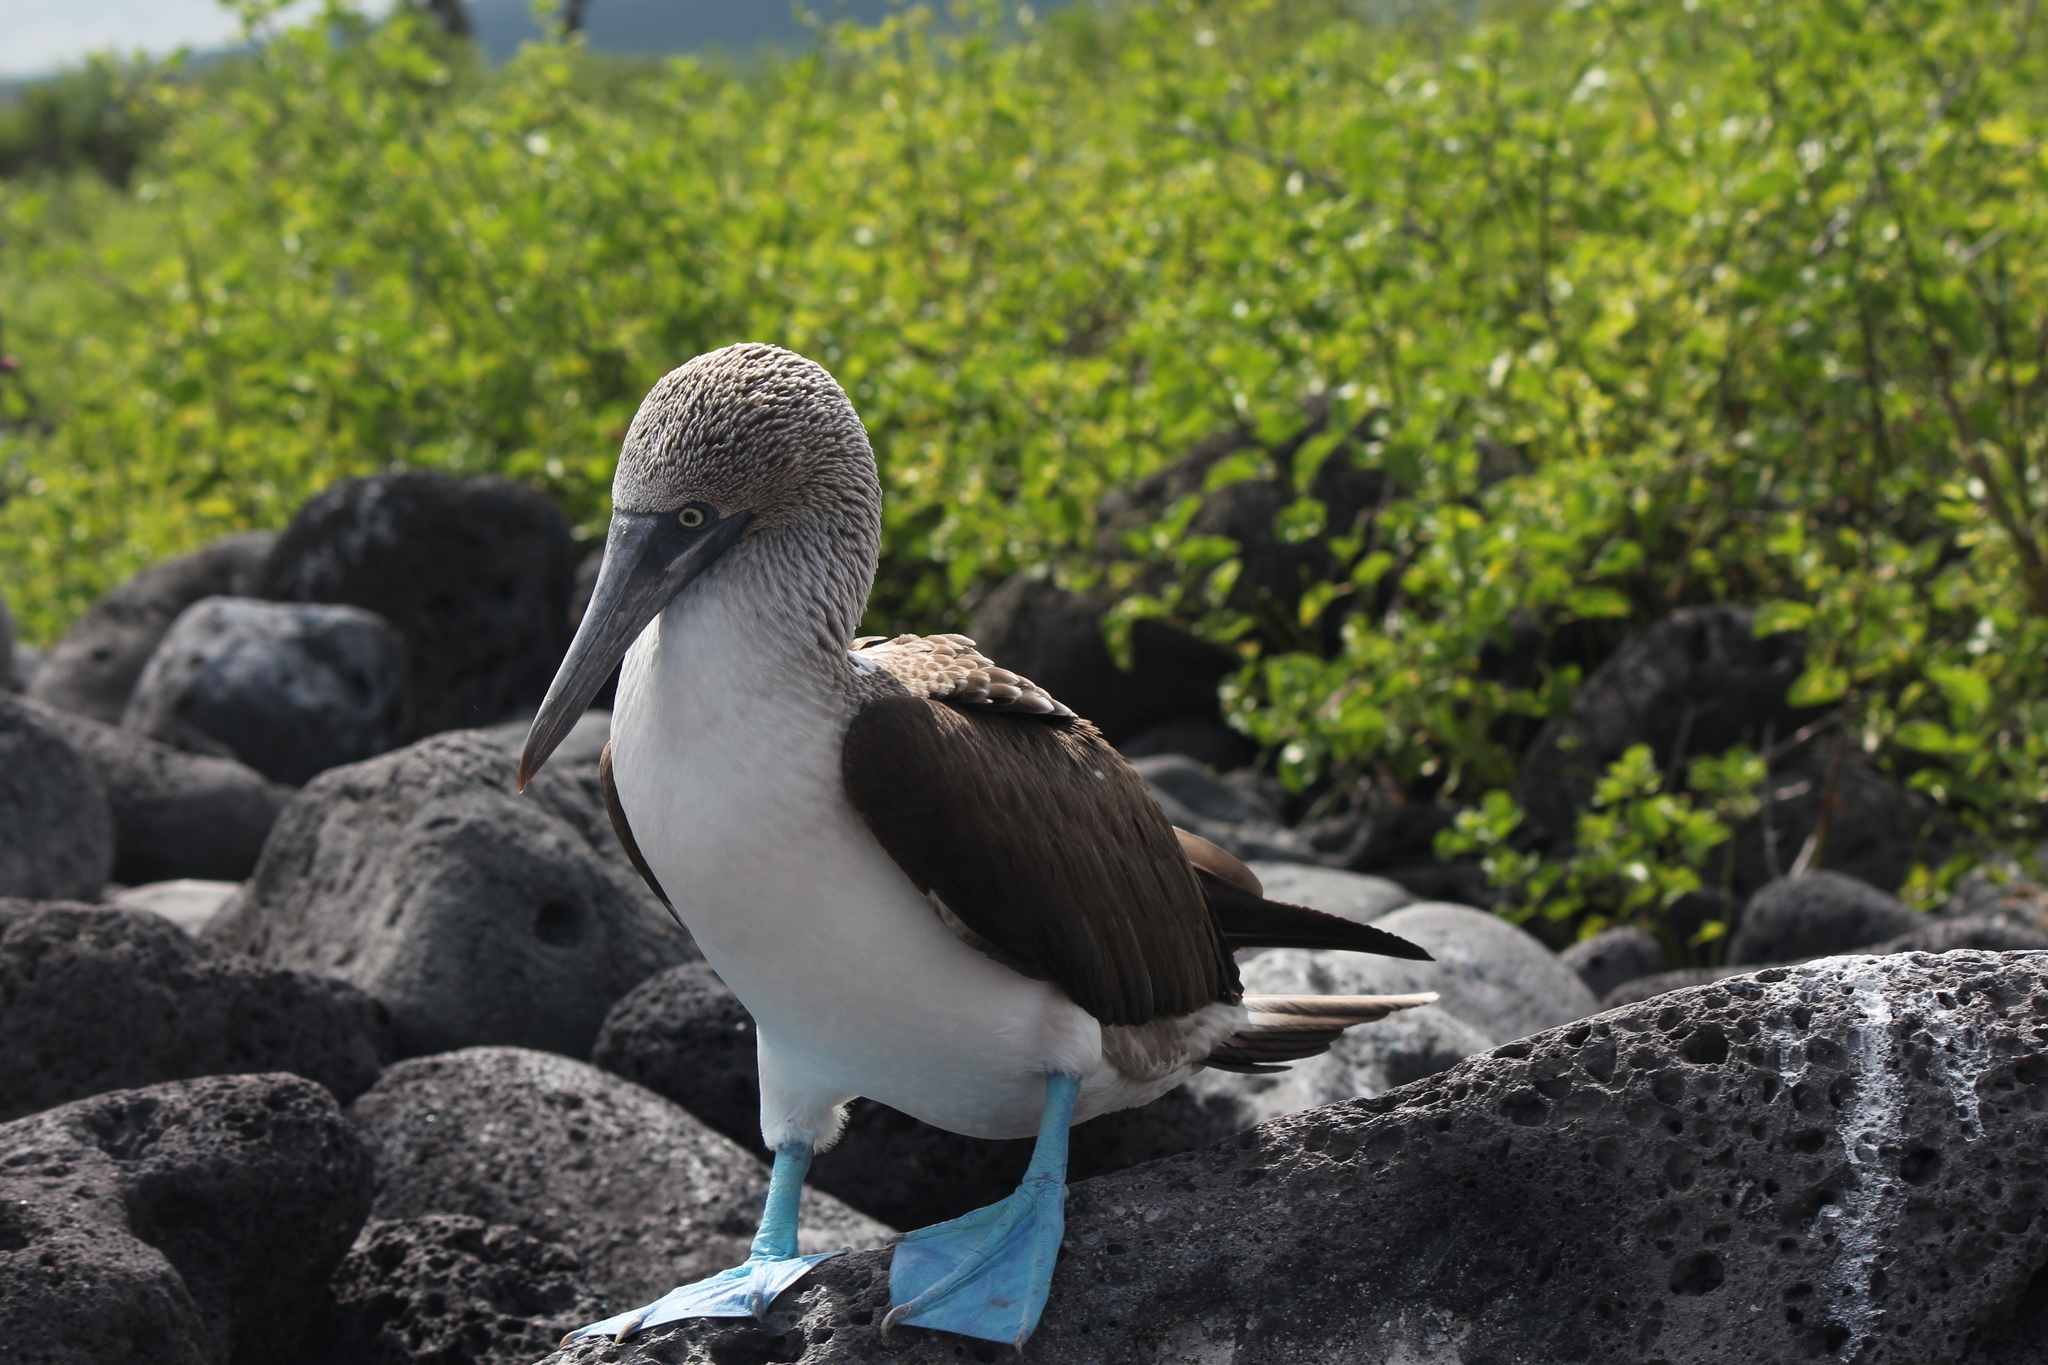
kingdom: Animalia
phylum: Chordata
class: Aves
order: Suliformes
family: Sulidae
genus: Sula
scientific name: Sula nebouxii
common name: Blue-footed booby
